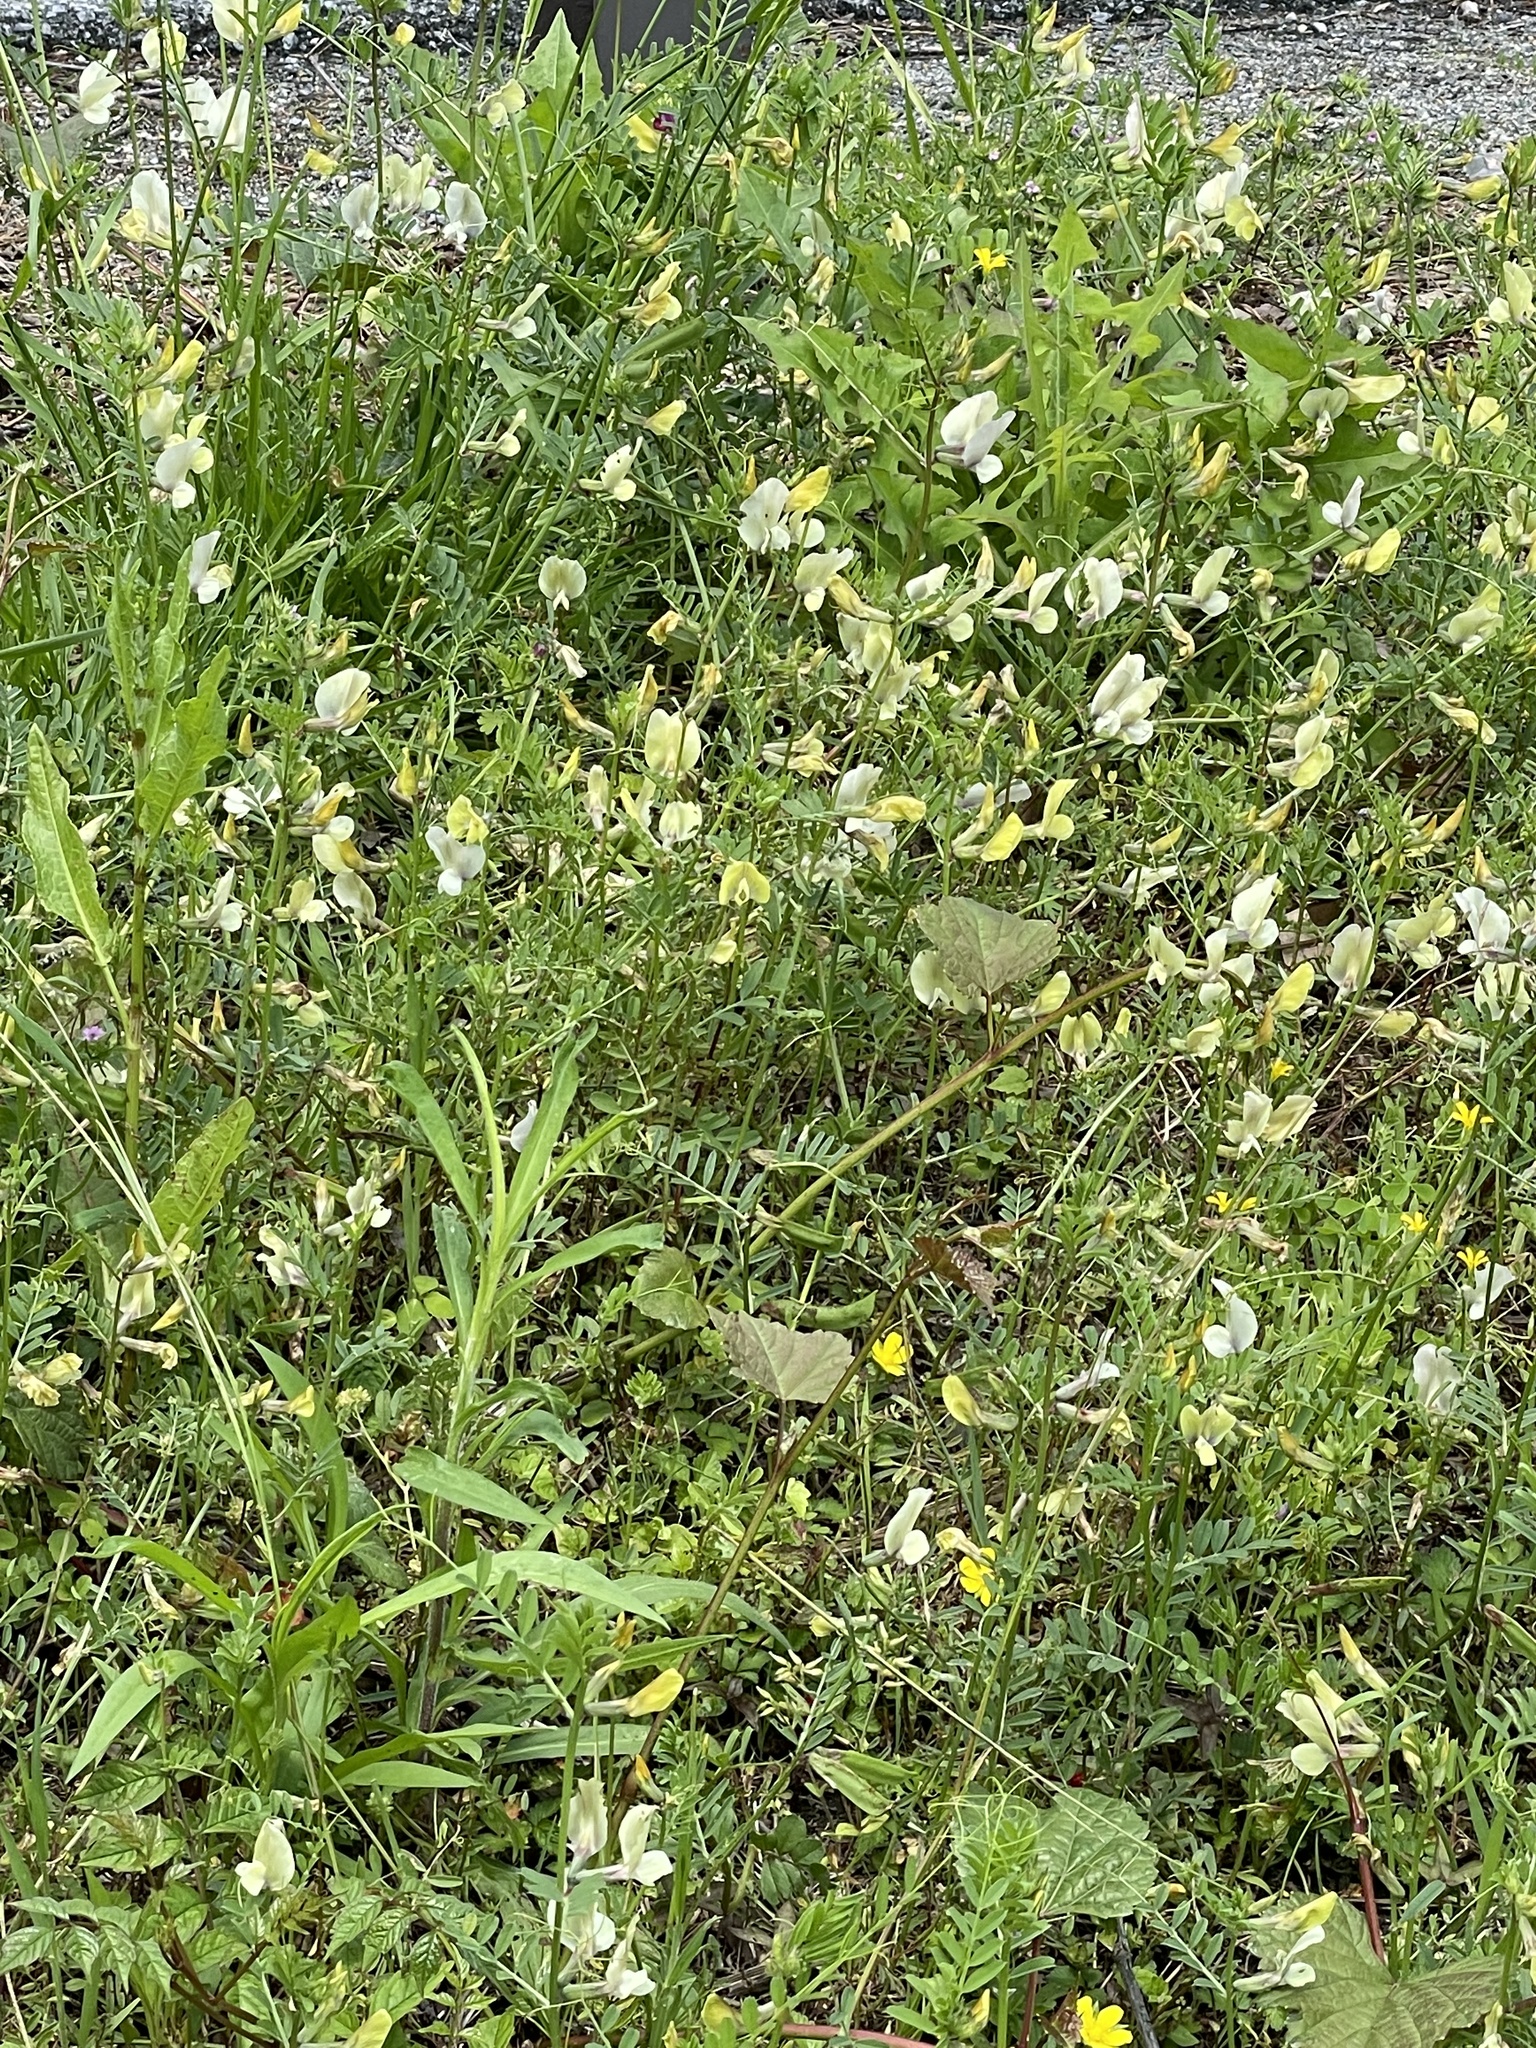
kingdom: Plantae
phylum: Tracheophyta
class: Magnoliopsida
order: Fabales
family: Fabaceae
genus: Vicia
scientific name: Vicia grandiflora
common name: Large yellow vetch
